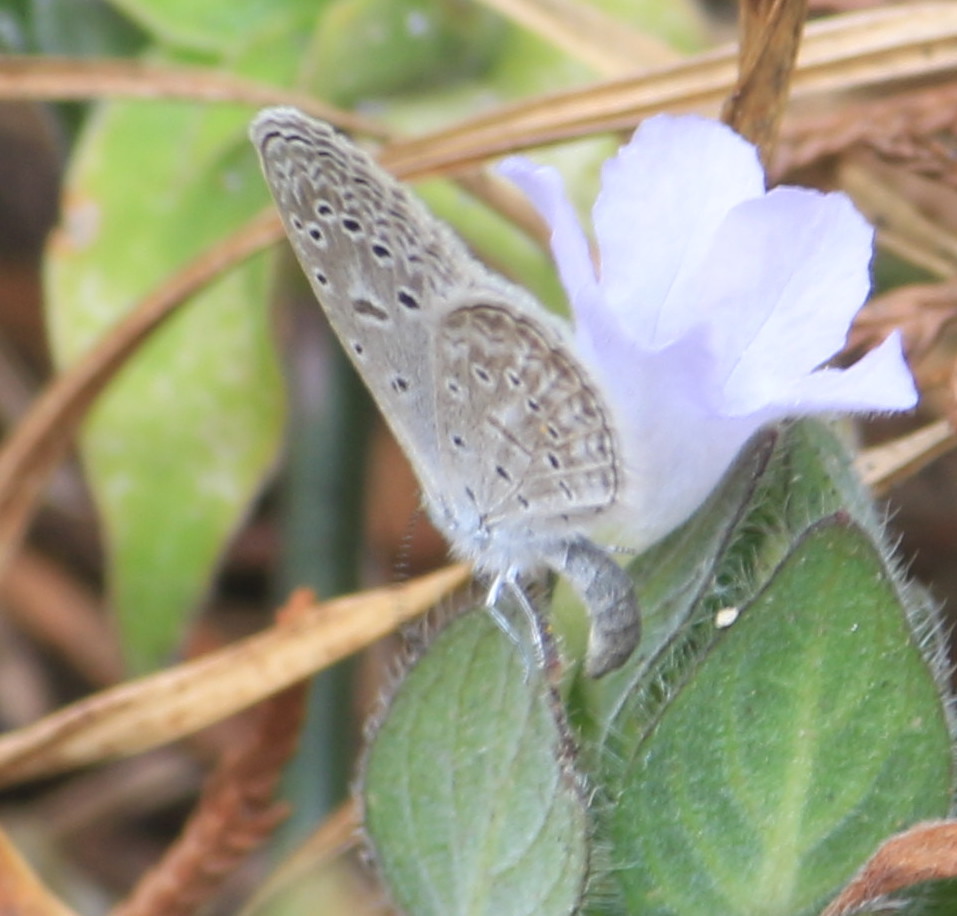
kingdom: Animalia
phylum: Arthropoda
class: Insecta
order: Lepidoptera
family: Lycaenidae
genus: Lycaena
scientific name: Lycaena cyna
